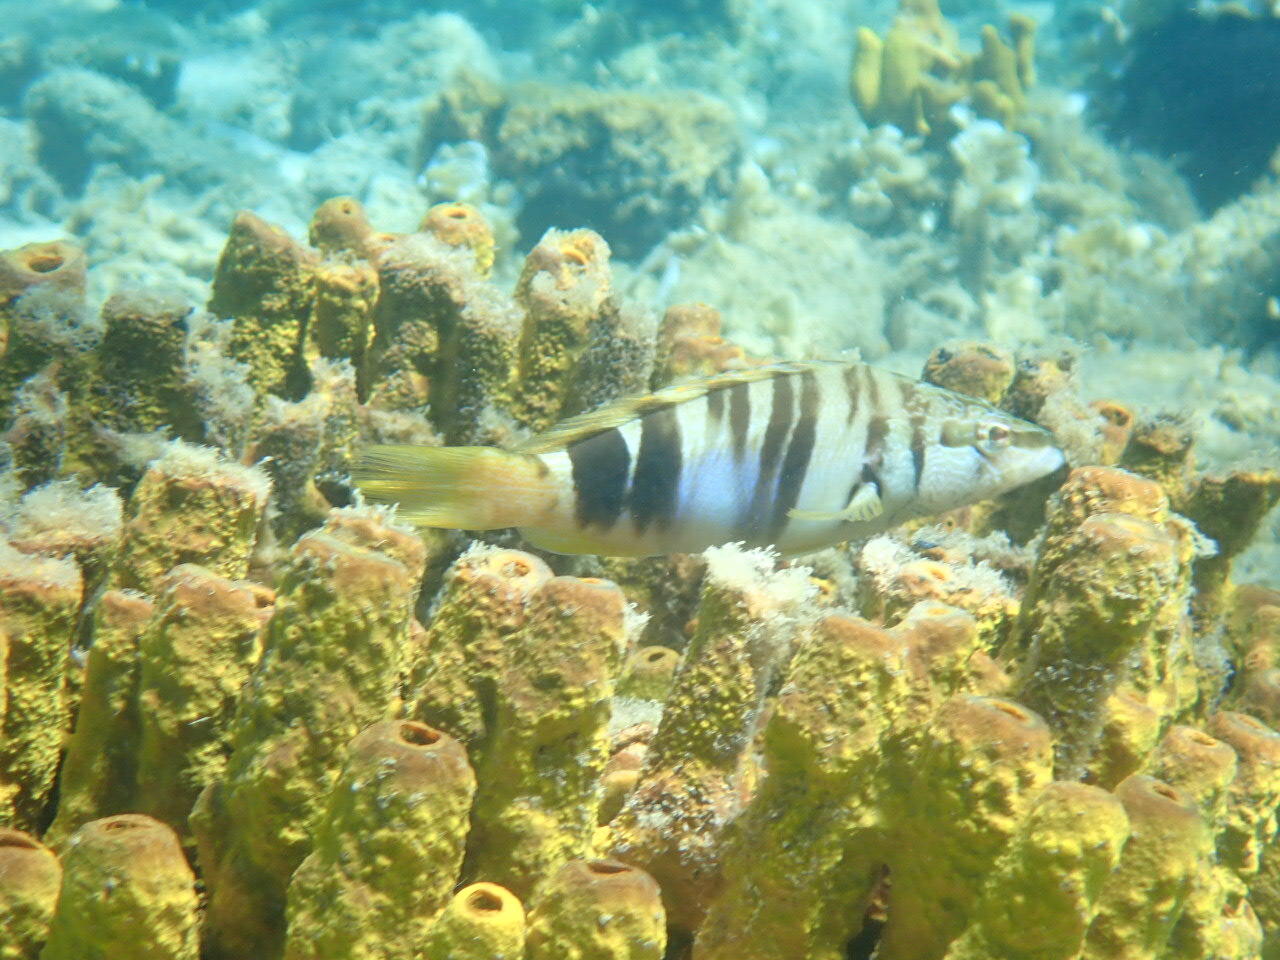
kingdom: Animalia
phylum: Chordata
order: Perciformes
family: Serranidae
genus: Serranus
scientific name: Serranus scriba
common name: Painted comber
